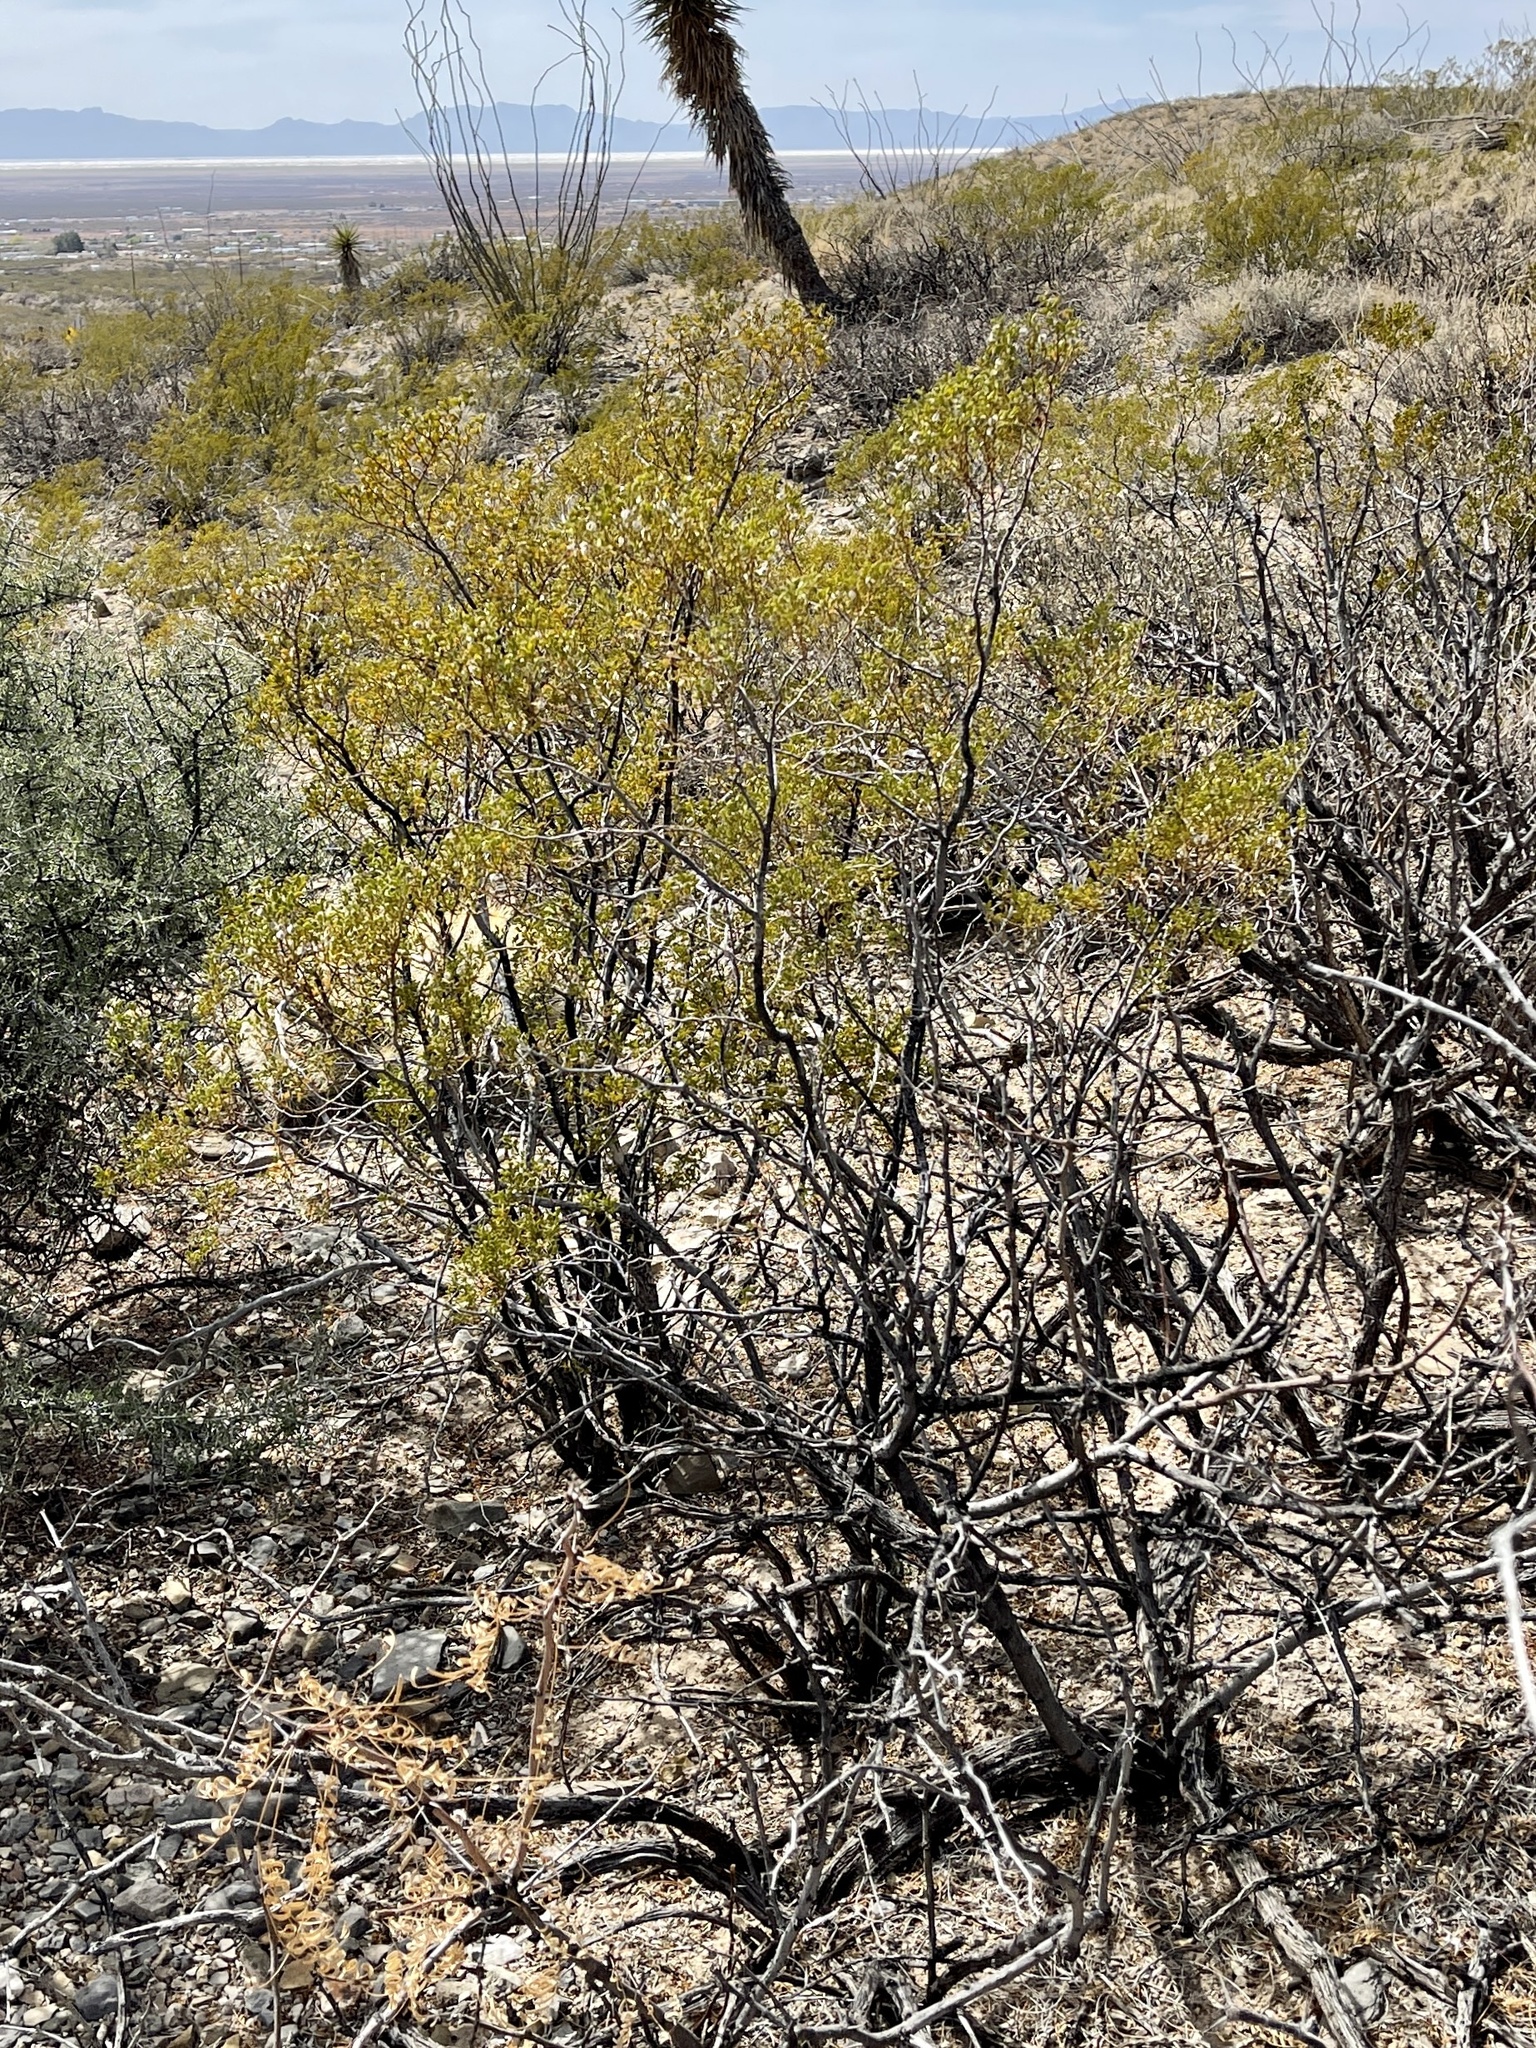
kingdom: Plantae
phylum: Tracheophyta
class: Magnoliopsida
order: Zygophyllales
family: Zygophyllaceae
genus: Larrea
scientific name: Larrea tridentata
